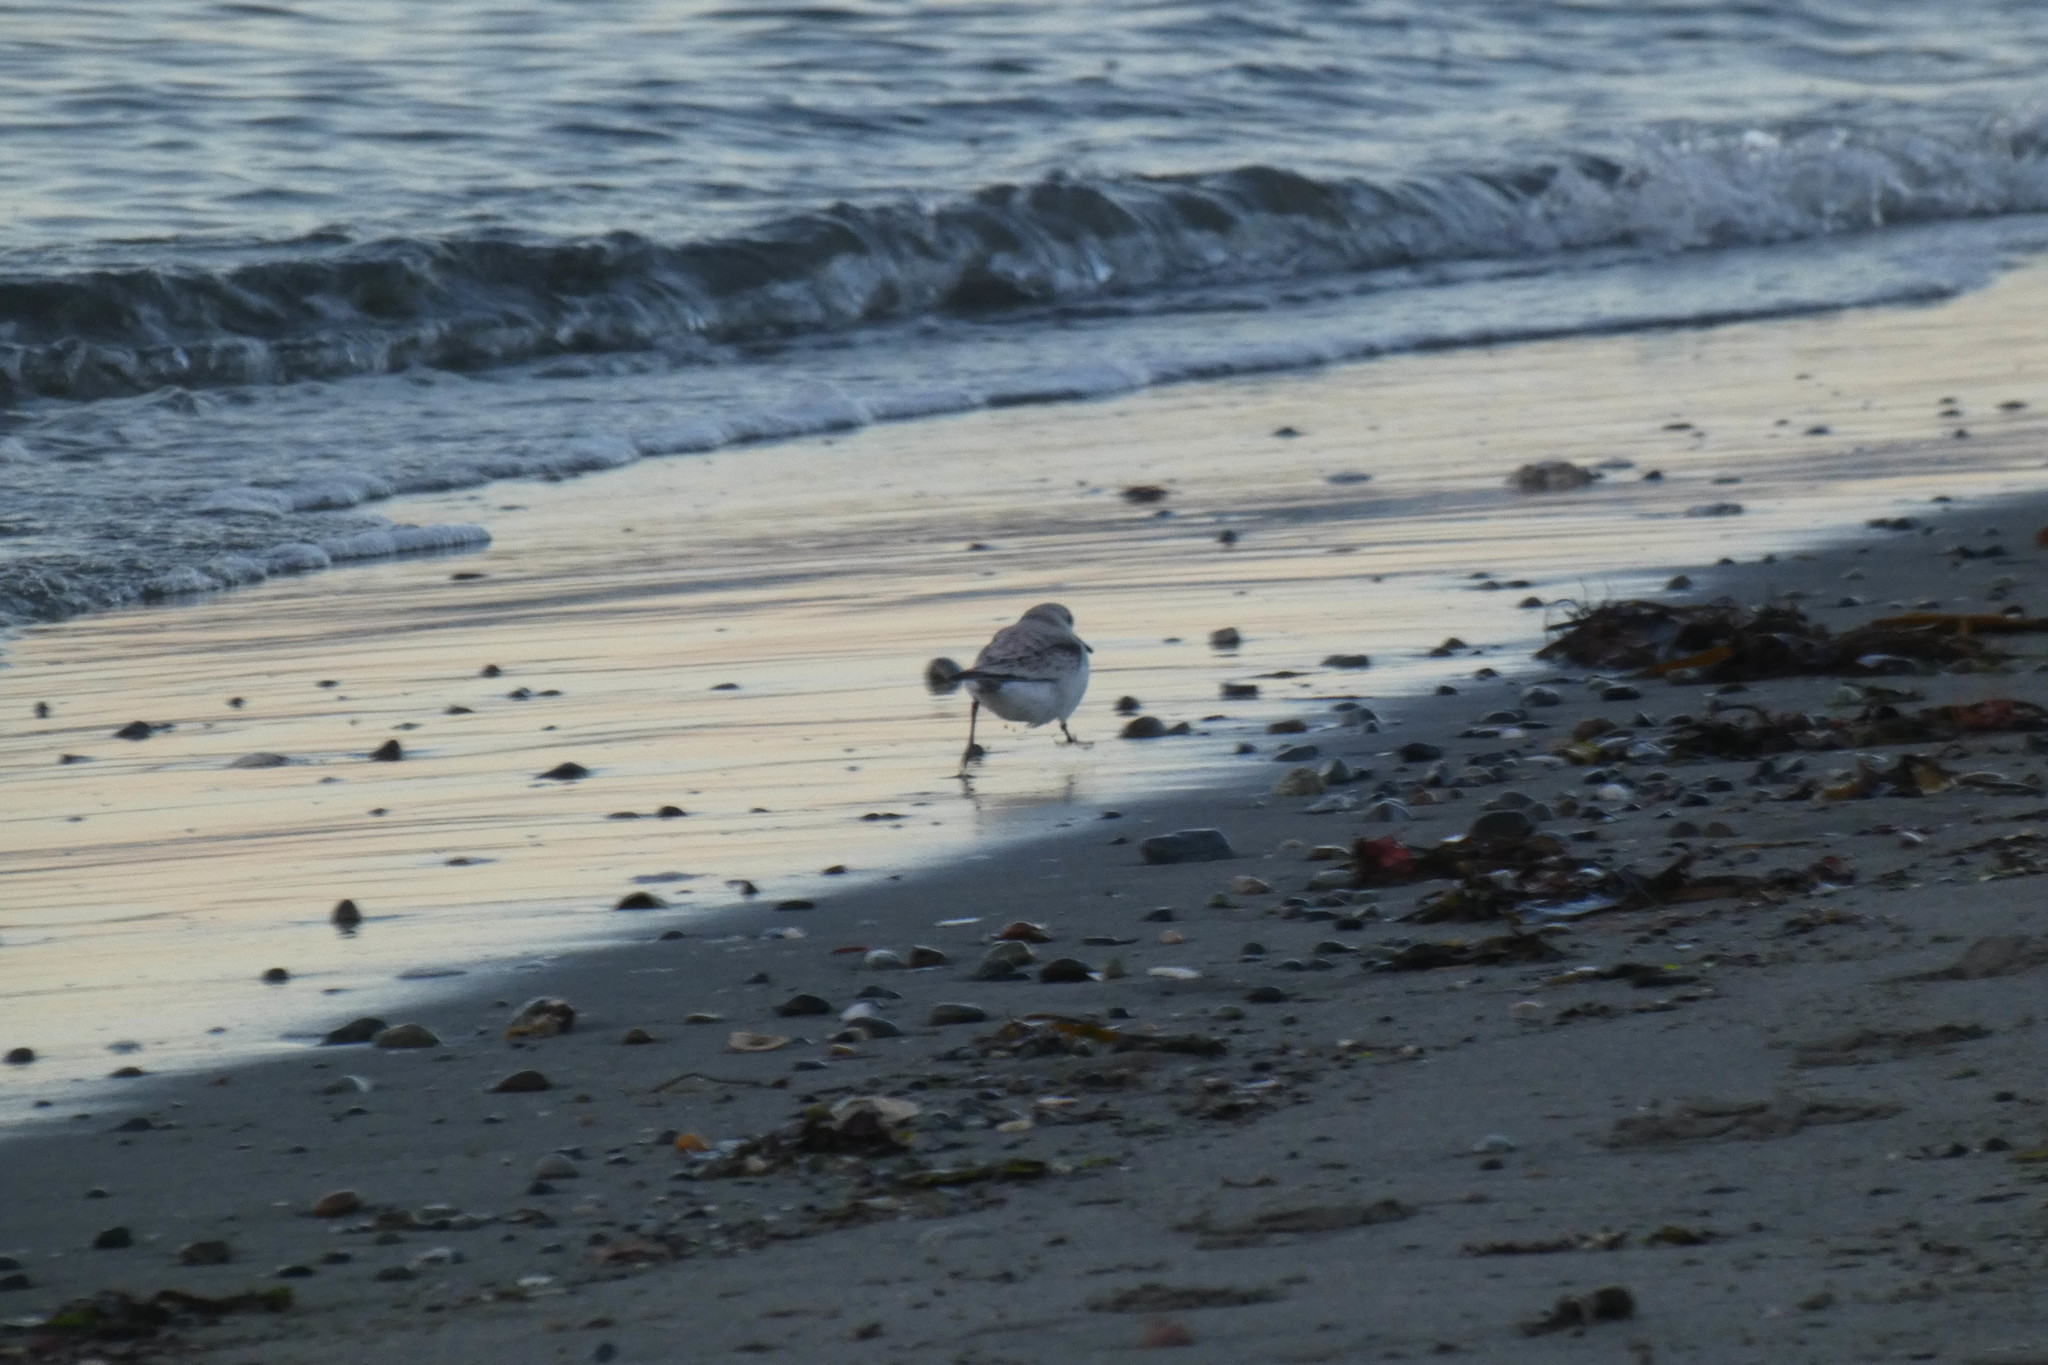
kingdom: Animalia
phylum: Chordata
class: Aves
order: Charadriiformes
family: Scolopacidae
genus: Calidris
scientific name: Calidris alba
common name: Sanderling
